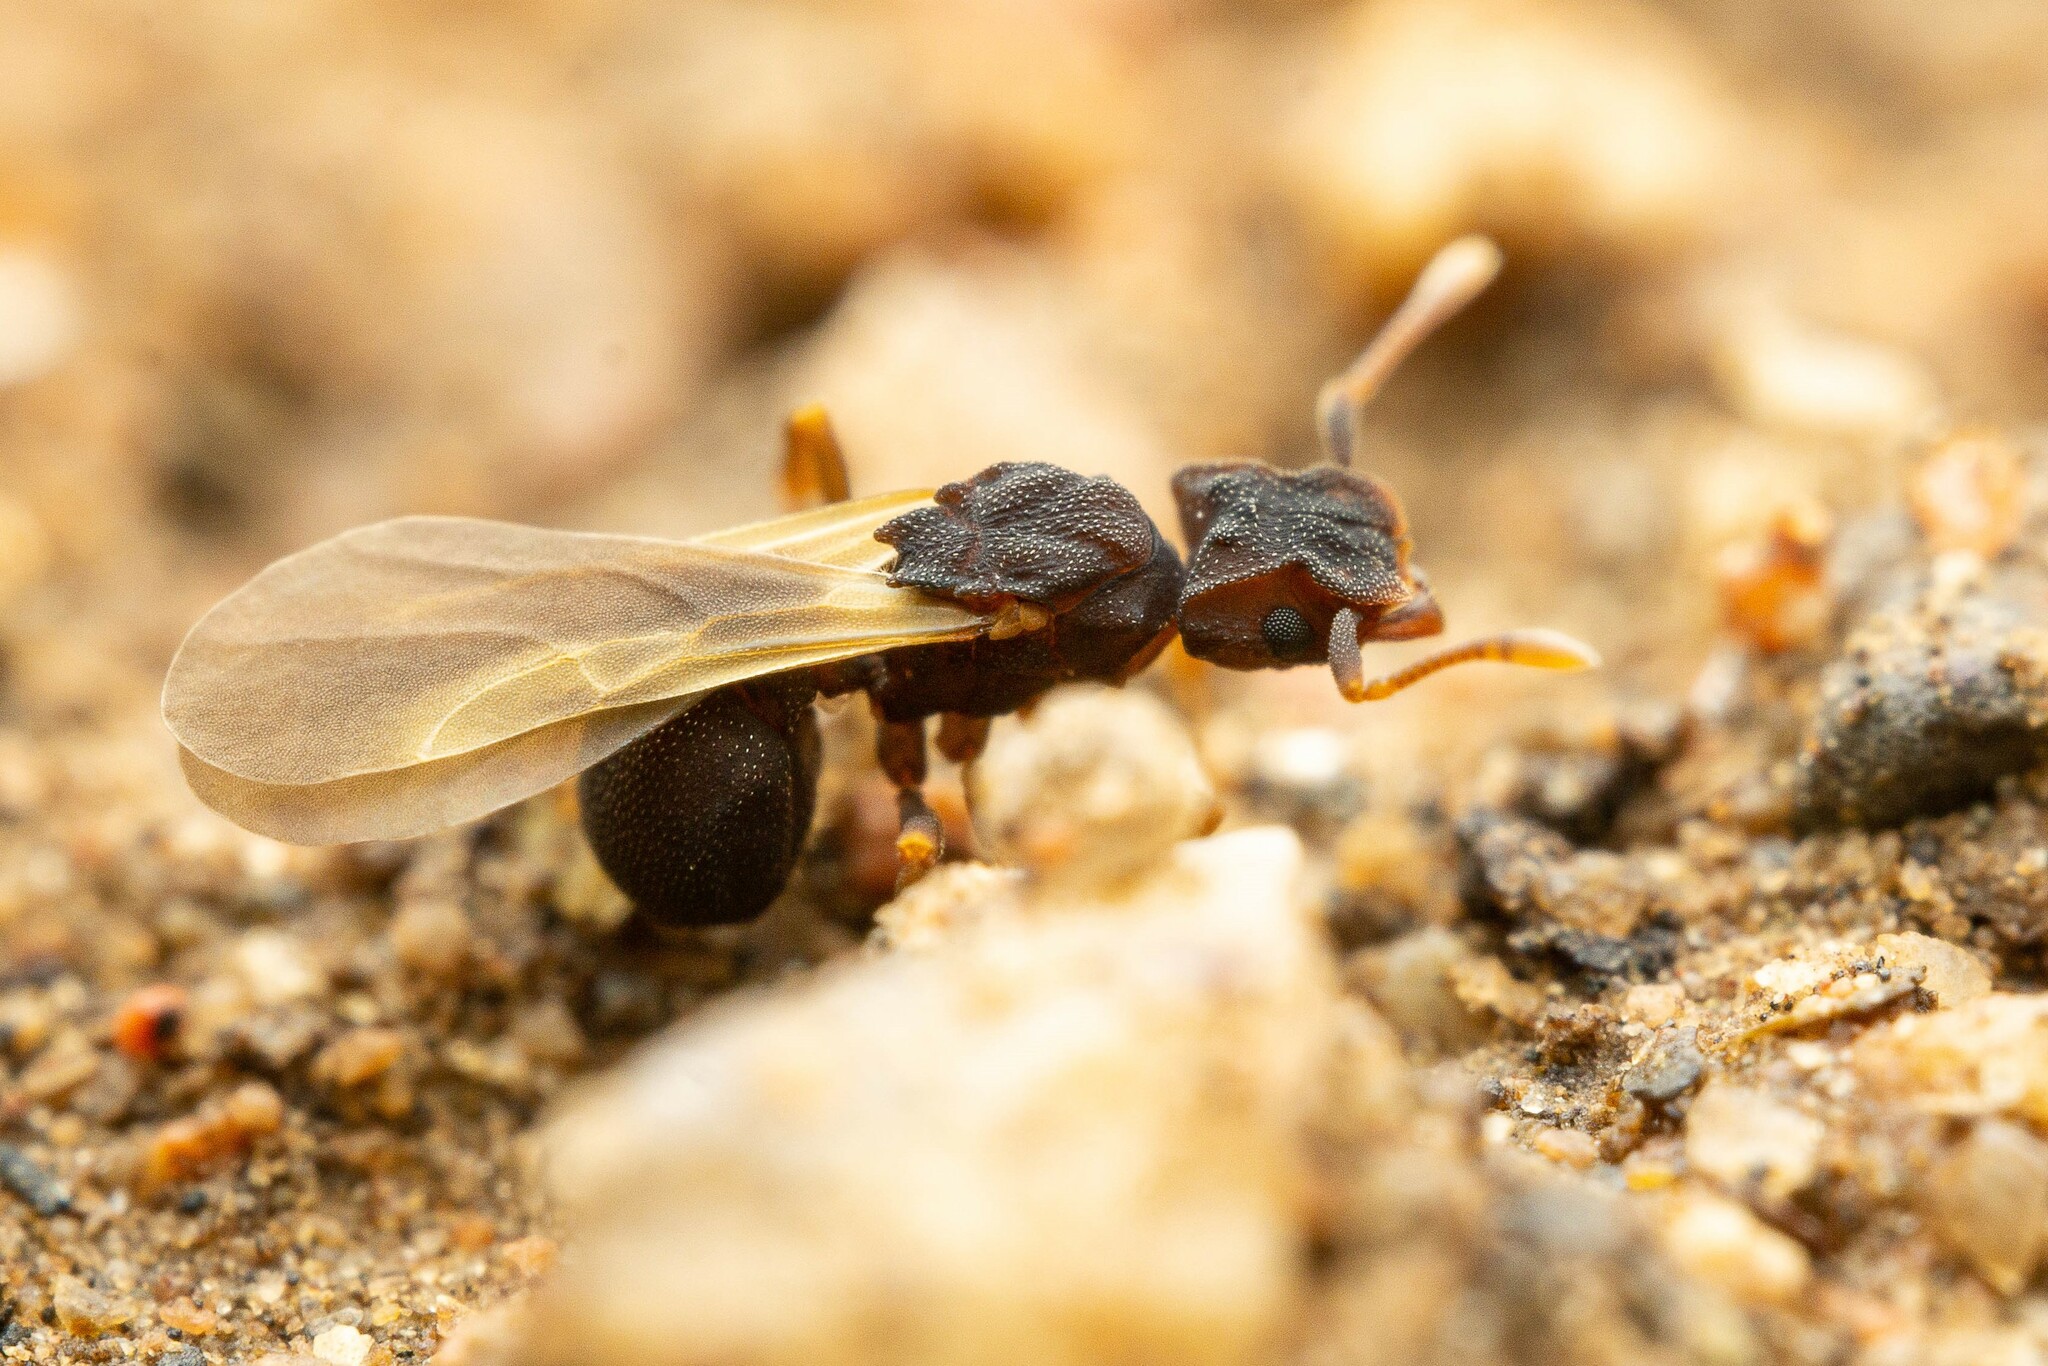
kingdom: Animalia
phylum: Arthropoda
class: Insecta
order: Hymenoptera
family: Formicidae
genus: Cyphomyrmex
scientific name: Cyphomyrmex flavidus
